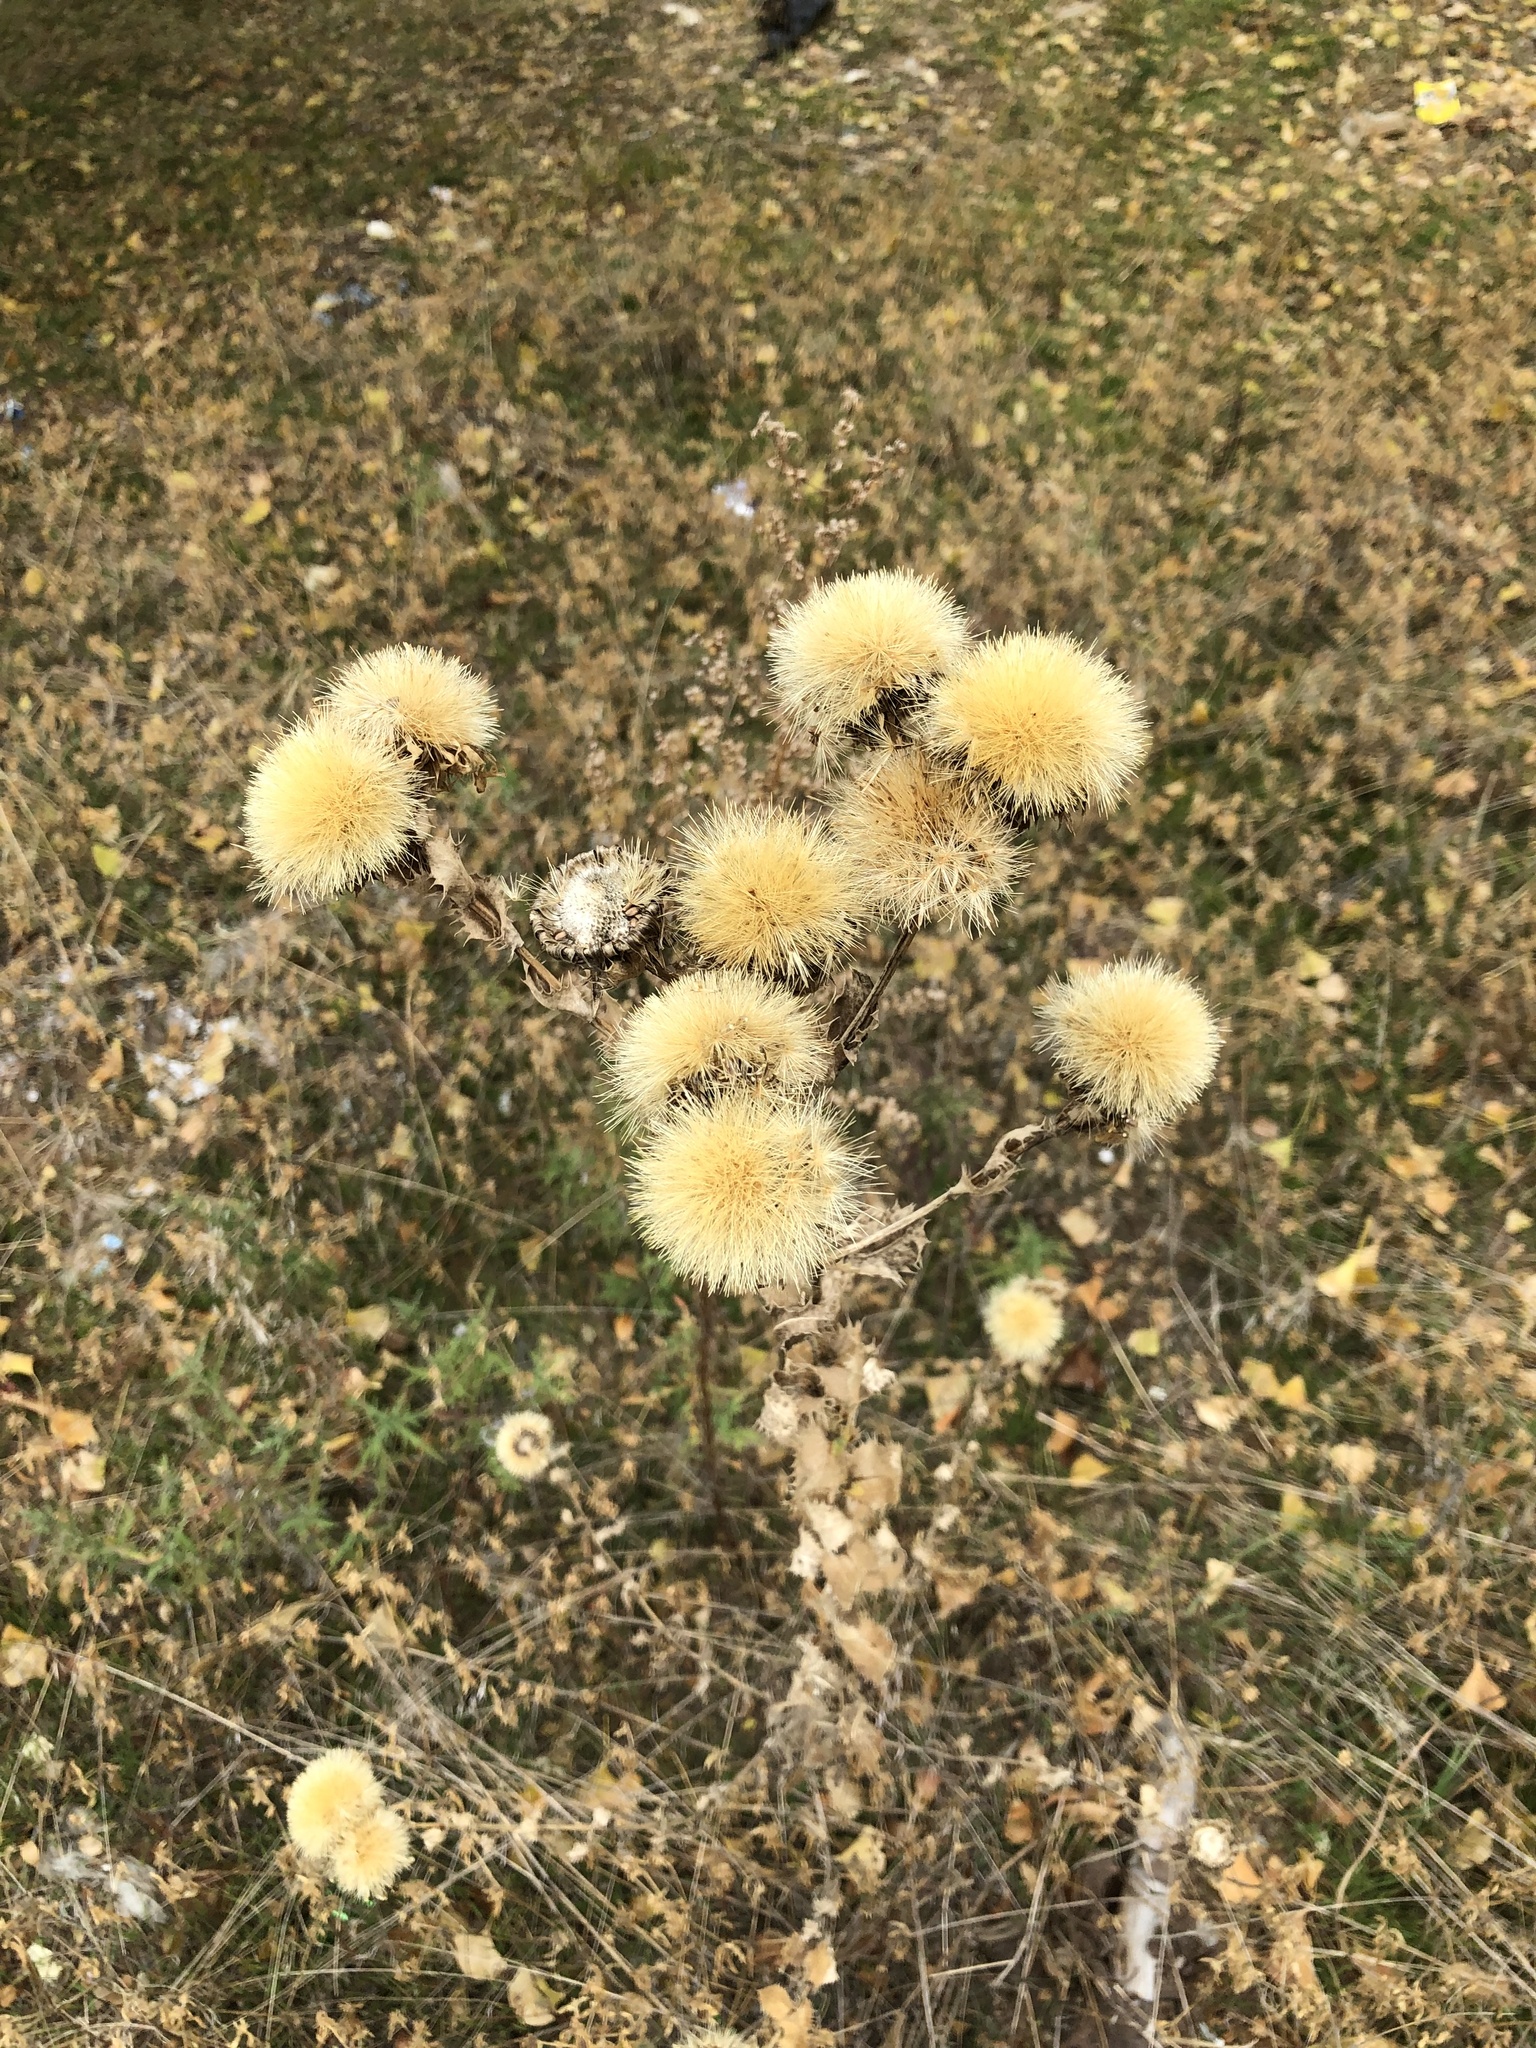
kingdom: Plantae
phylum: Tracheophyta
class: Magnoliopsida
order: Asterales
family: Asteraceae
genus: Grindelia
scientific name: Grindelia ciliata
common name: Goldenweed
